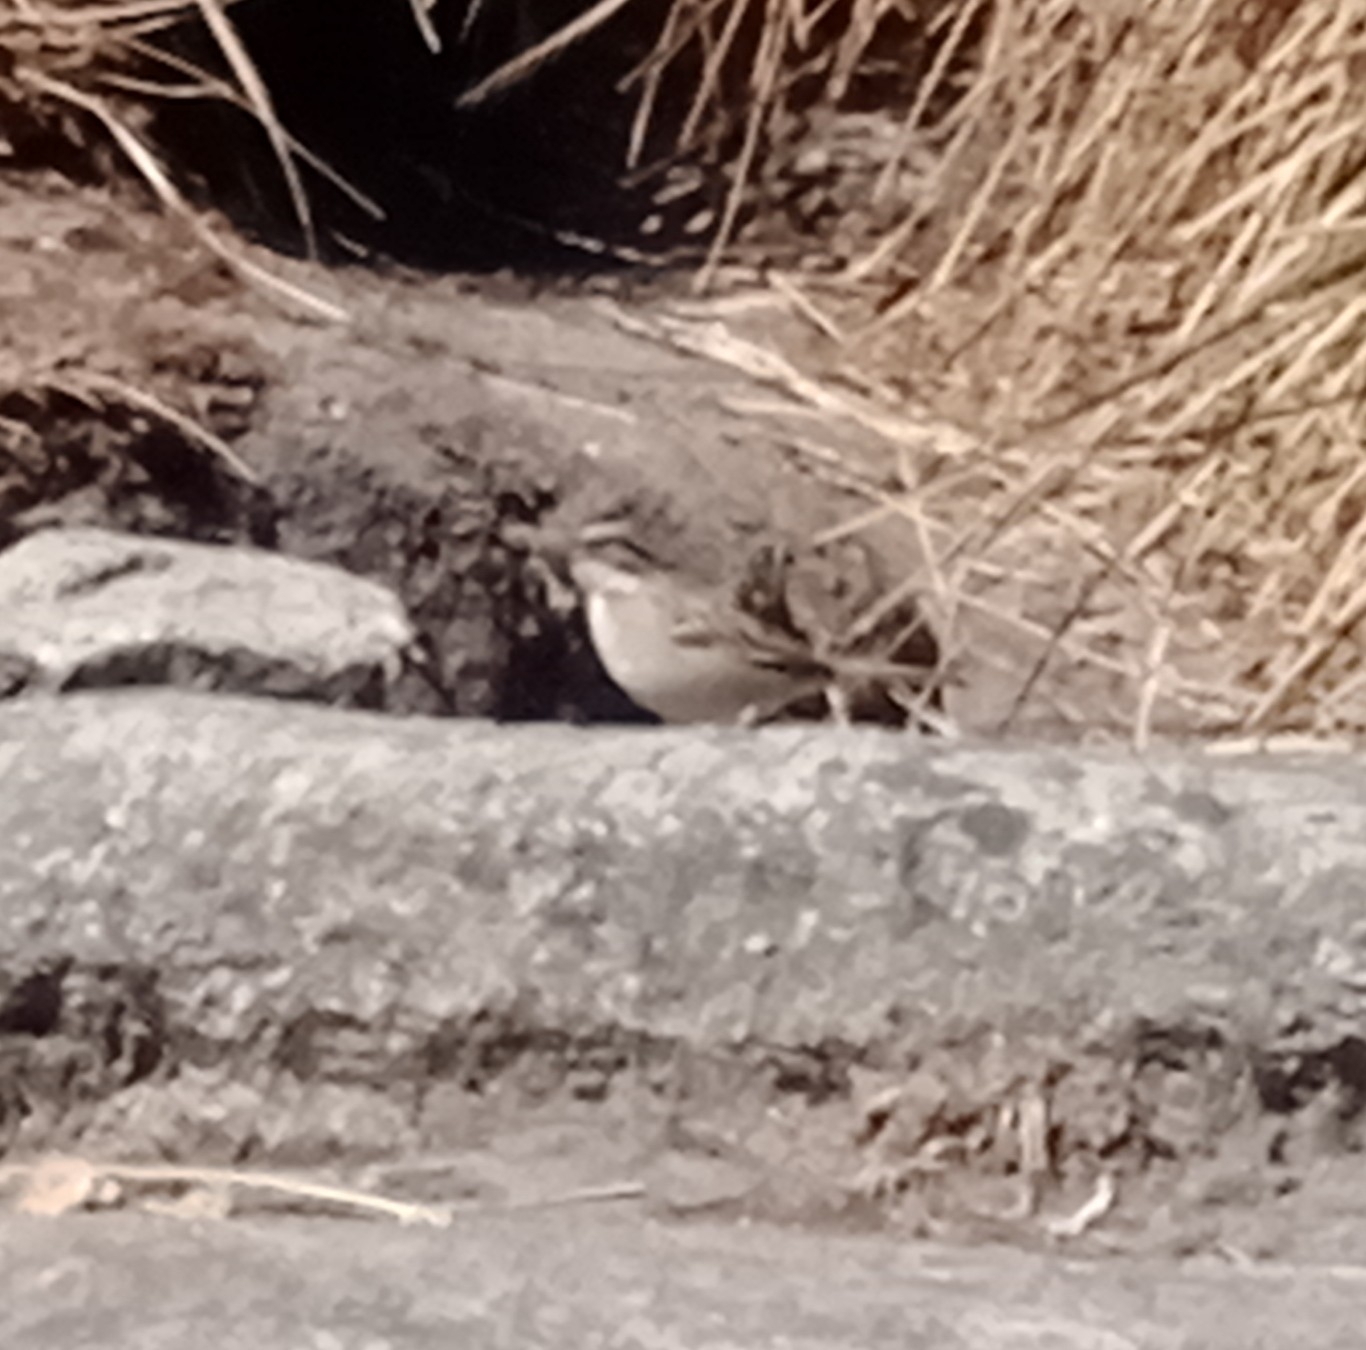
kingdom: Animalia
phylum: Chordata
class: Aves
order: Passeriformes
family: Passerellidae
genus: Zonotrichia
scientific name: Zonotrichia capensis
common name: Rufous-collared sparrow
